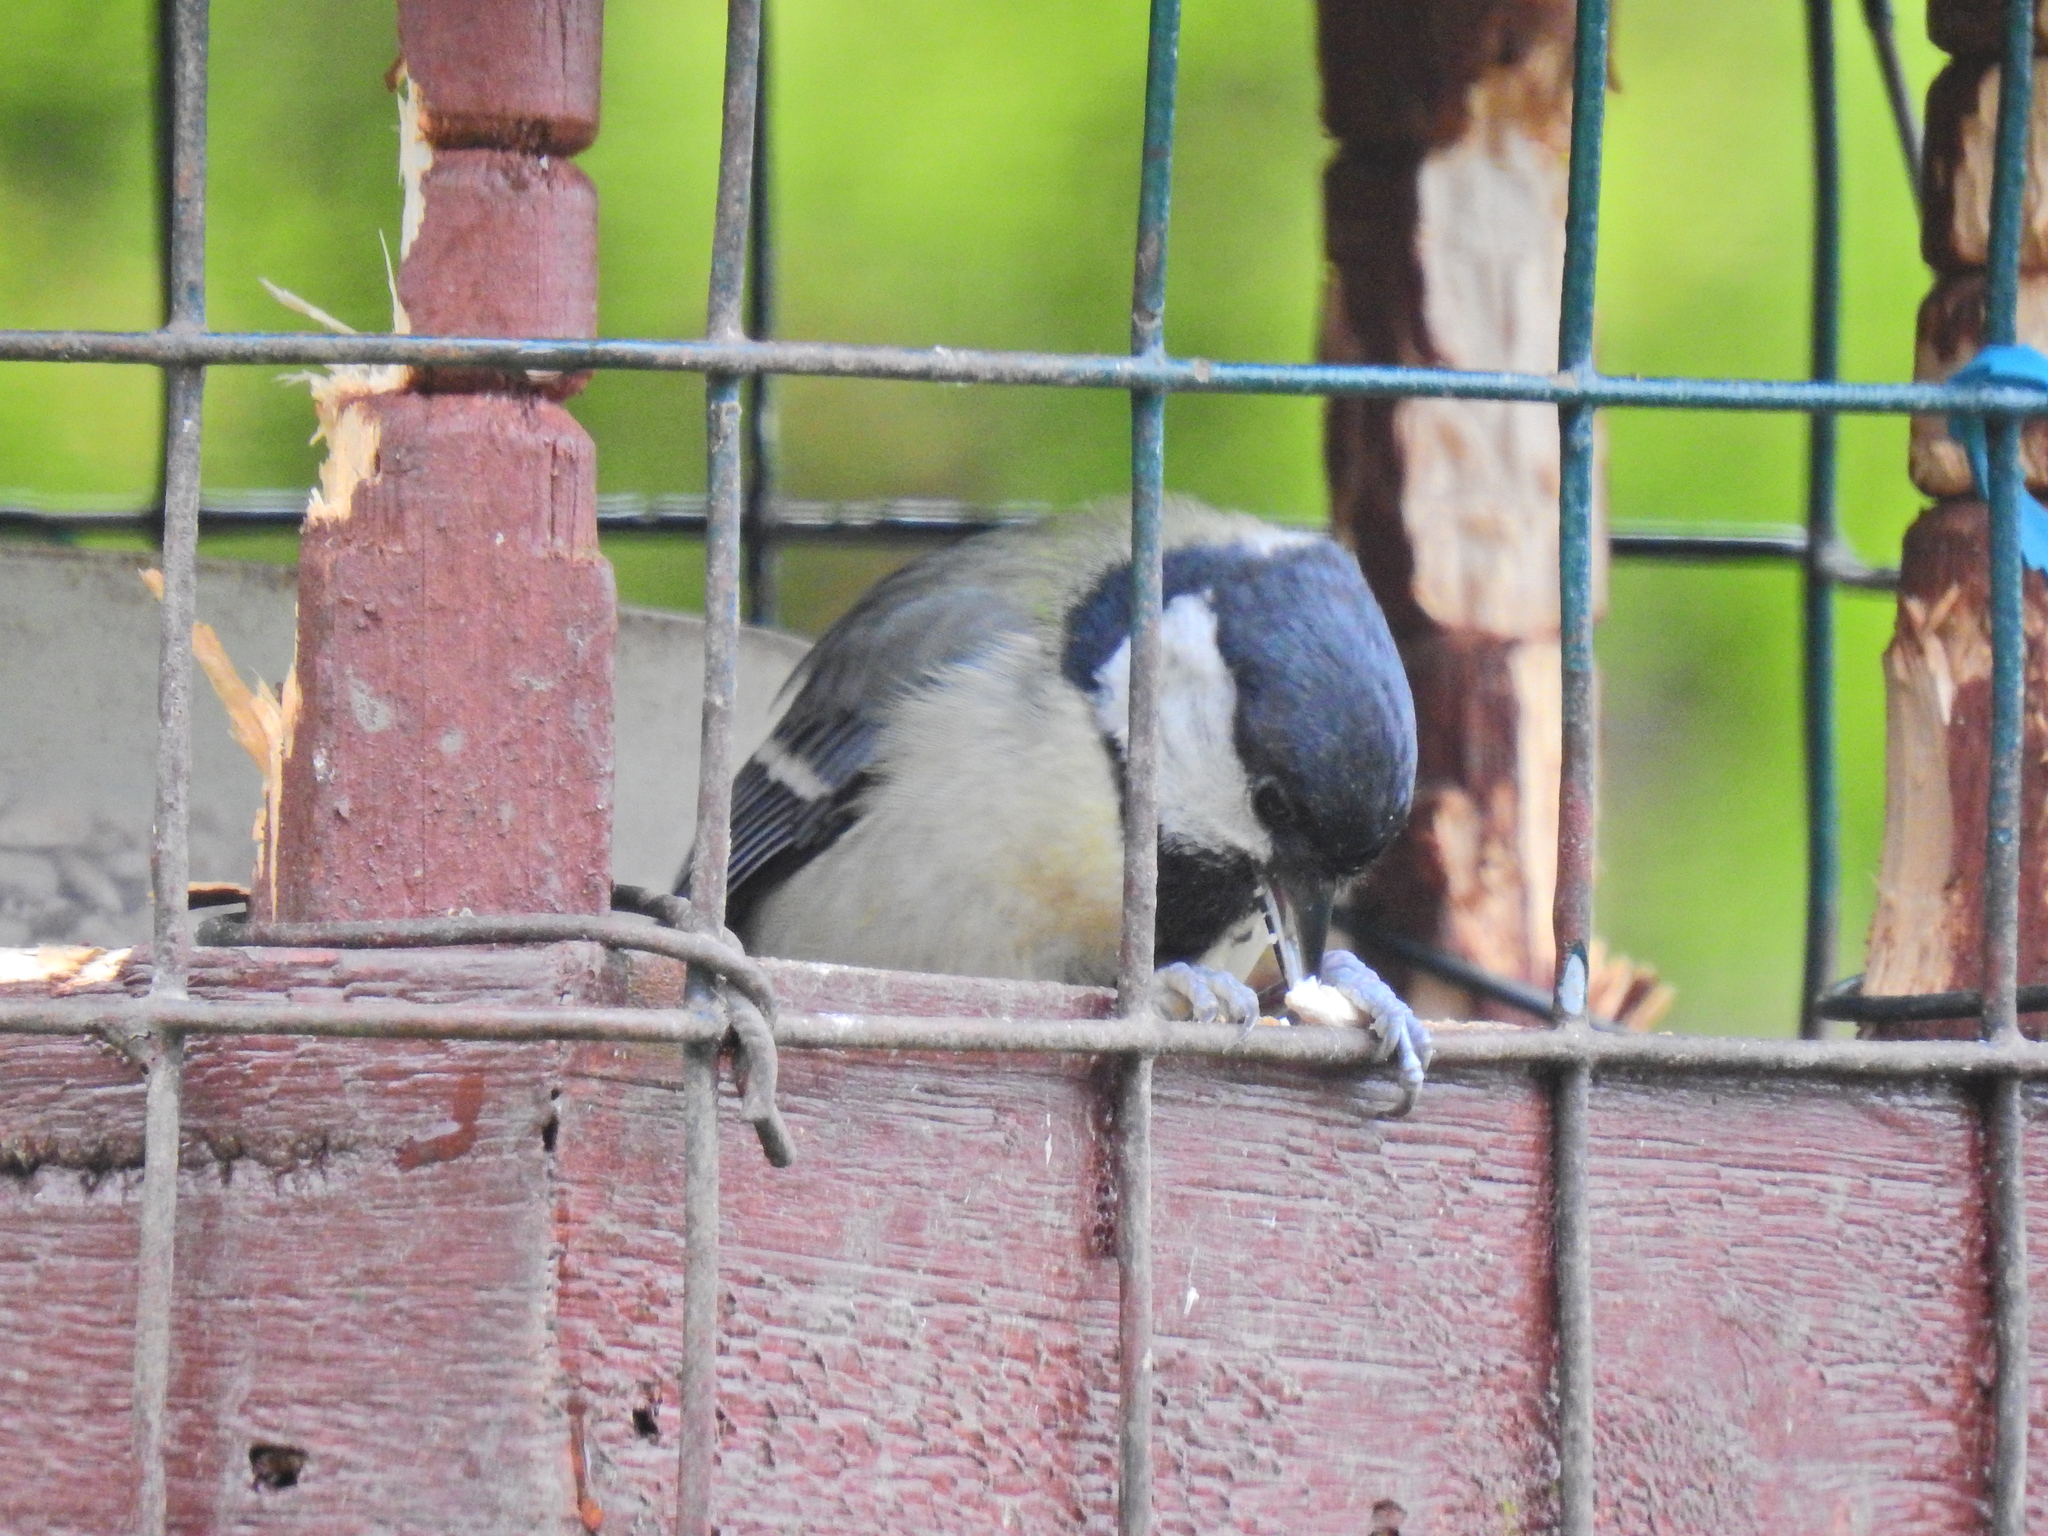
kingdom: Animalia
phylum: Chordata
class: Aves
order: Passeriformes
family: Paridae
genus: Parus
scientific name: Parus major
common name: Great tit
